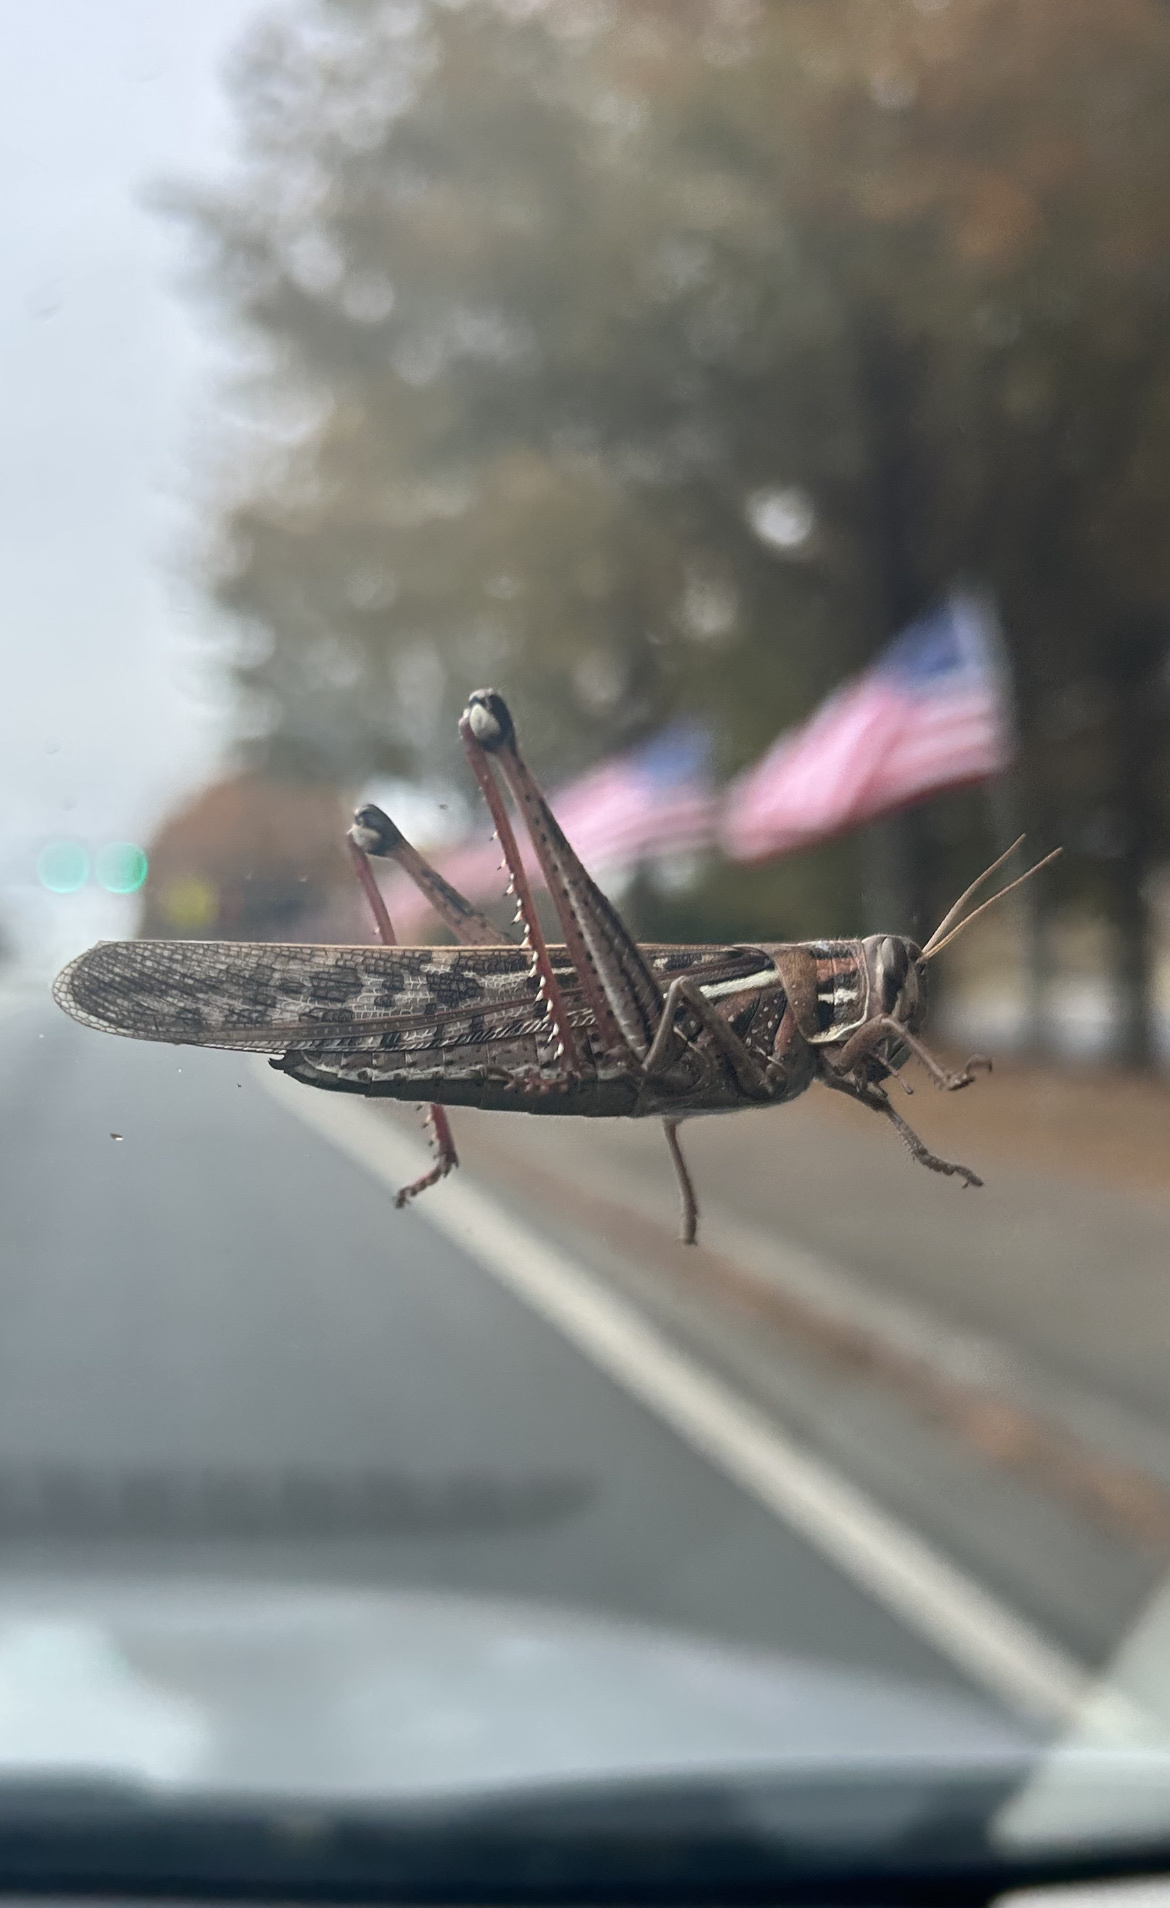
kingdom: Animalia
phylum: Arthropoda
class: Insecta
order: Orthoptera
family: Acrididae
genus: Schistocerca
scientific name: Schistocerca americana
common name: American bird locust
